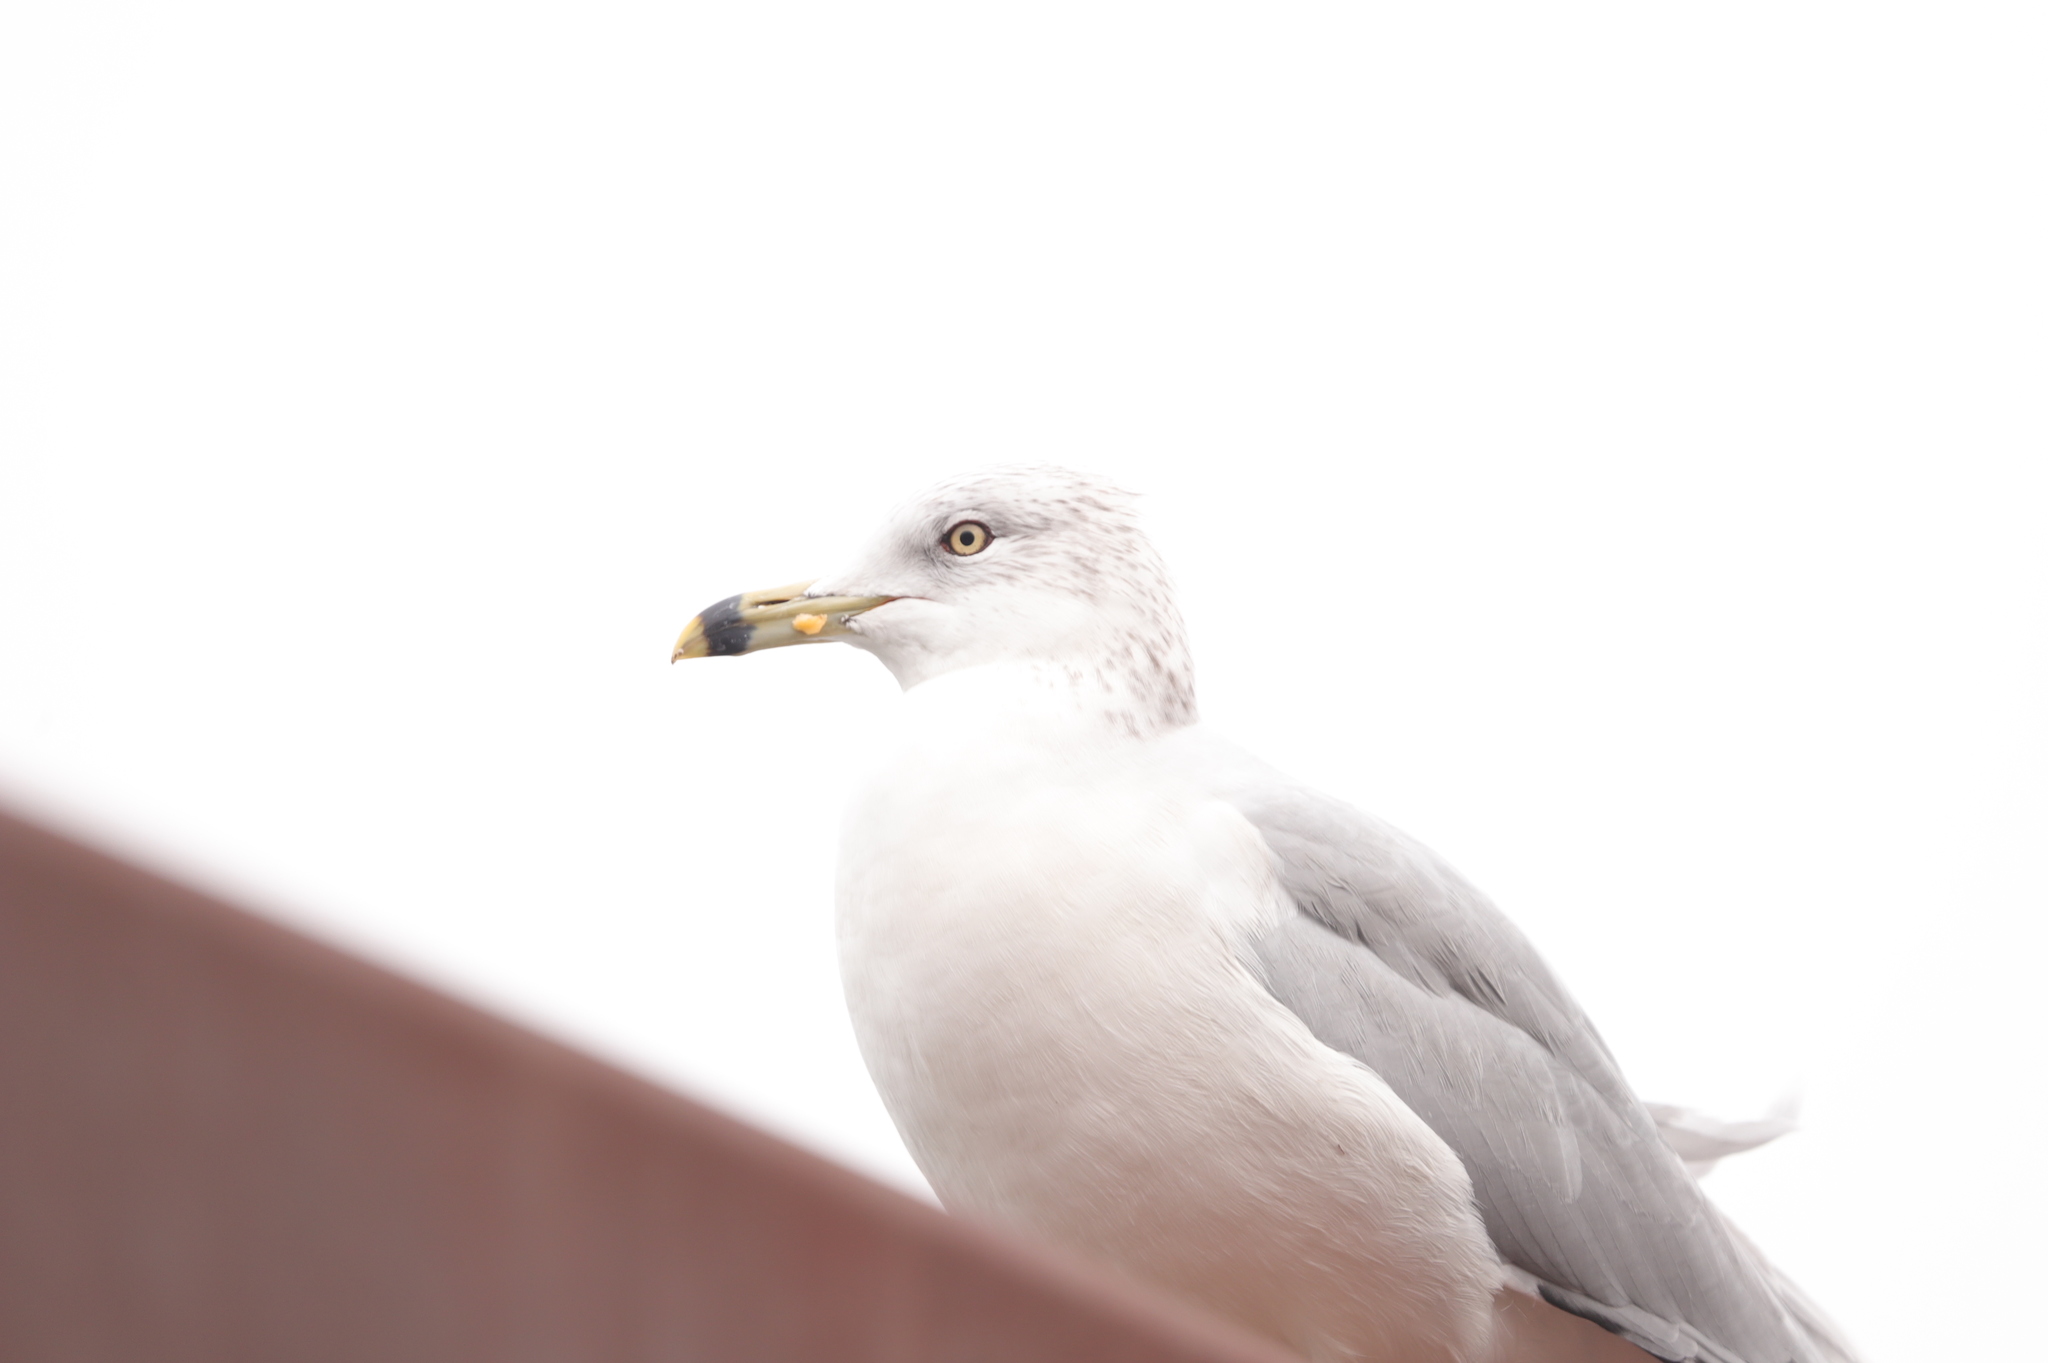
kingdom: Animalia
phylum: Chordata
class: Aves
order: Charadriiformes
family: Laridae
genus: Larus
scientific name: Larus delawarensis
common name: Ring-billed gull
